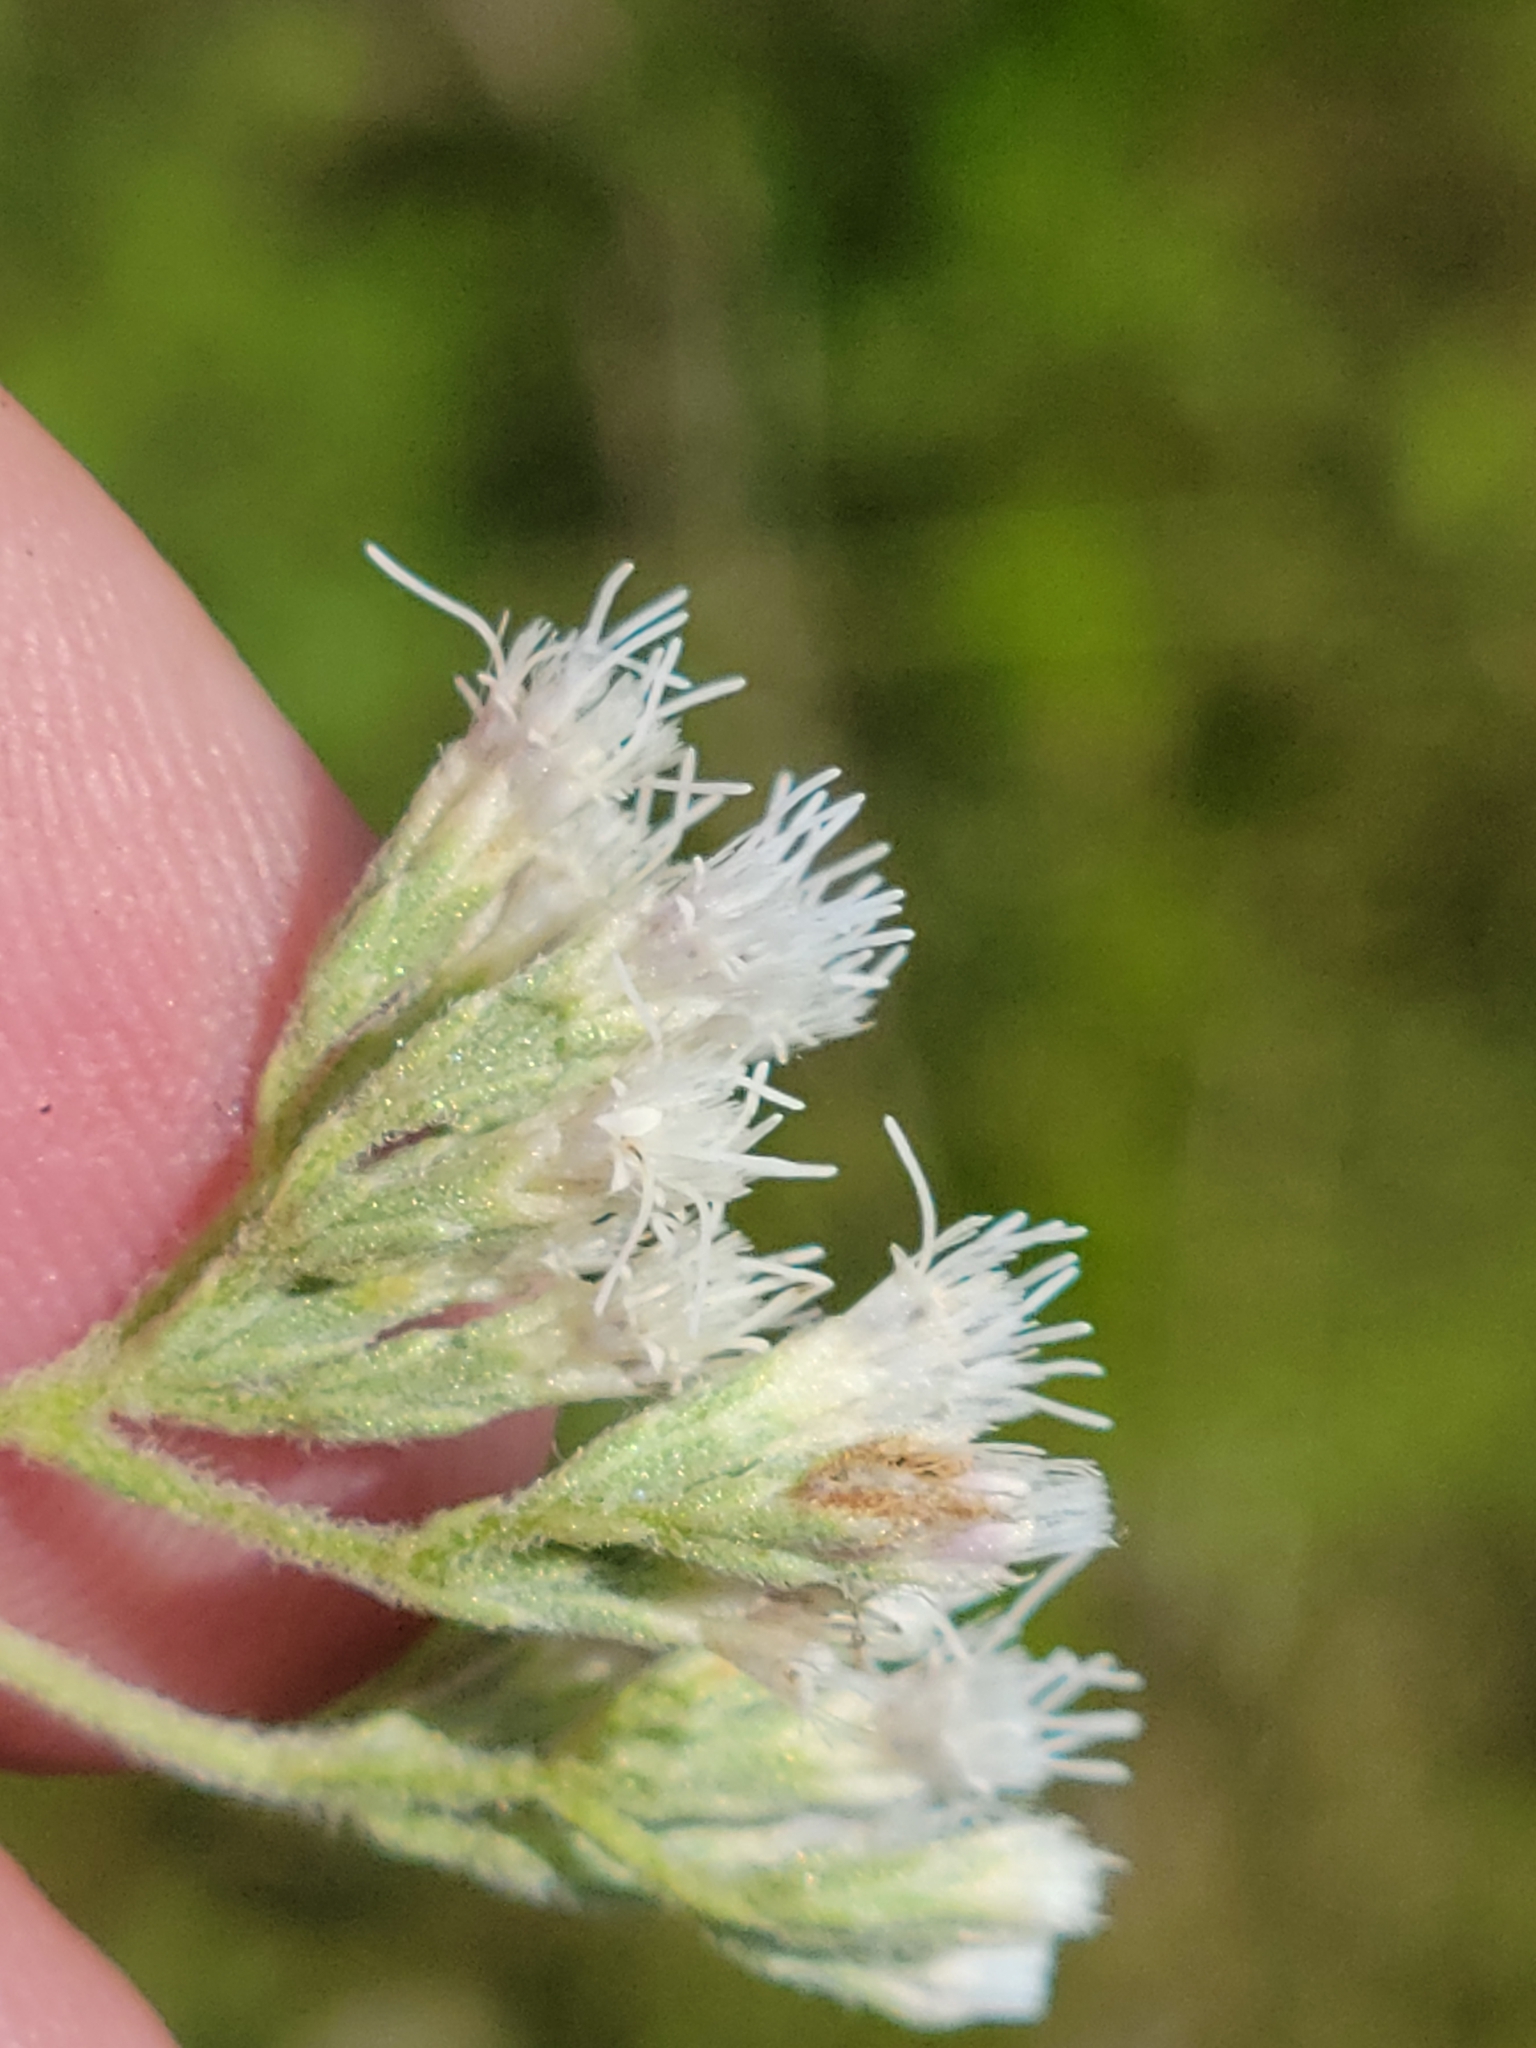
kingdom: Plantae
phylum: Tracheophyta
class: Magnoliopsida
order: Asterales
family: Asteraceae
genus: Eupatorium
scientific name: Eupatorium rotundifolium
